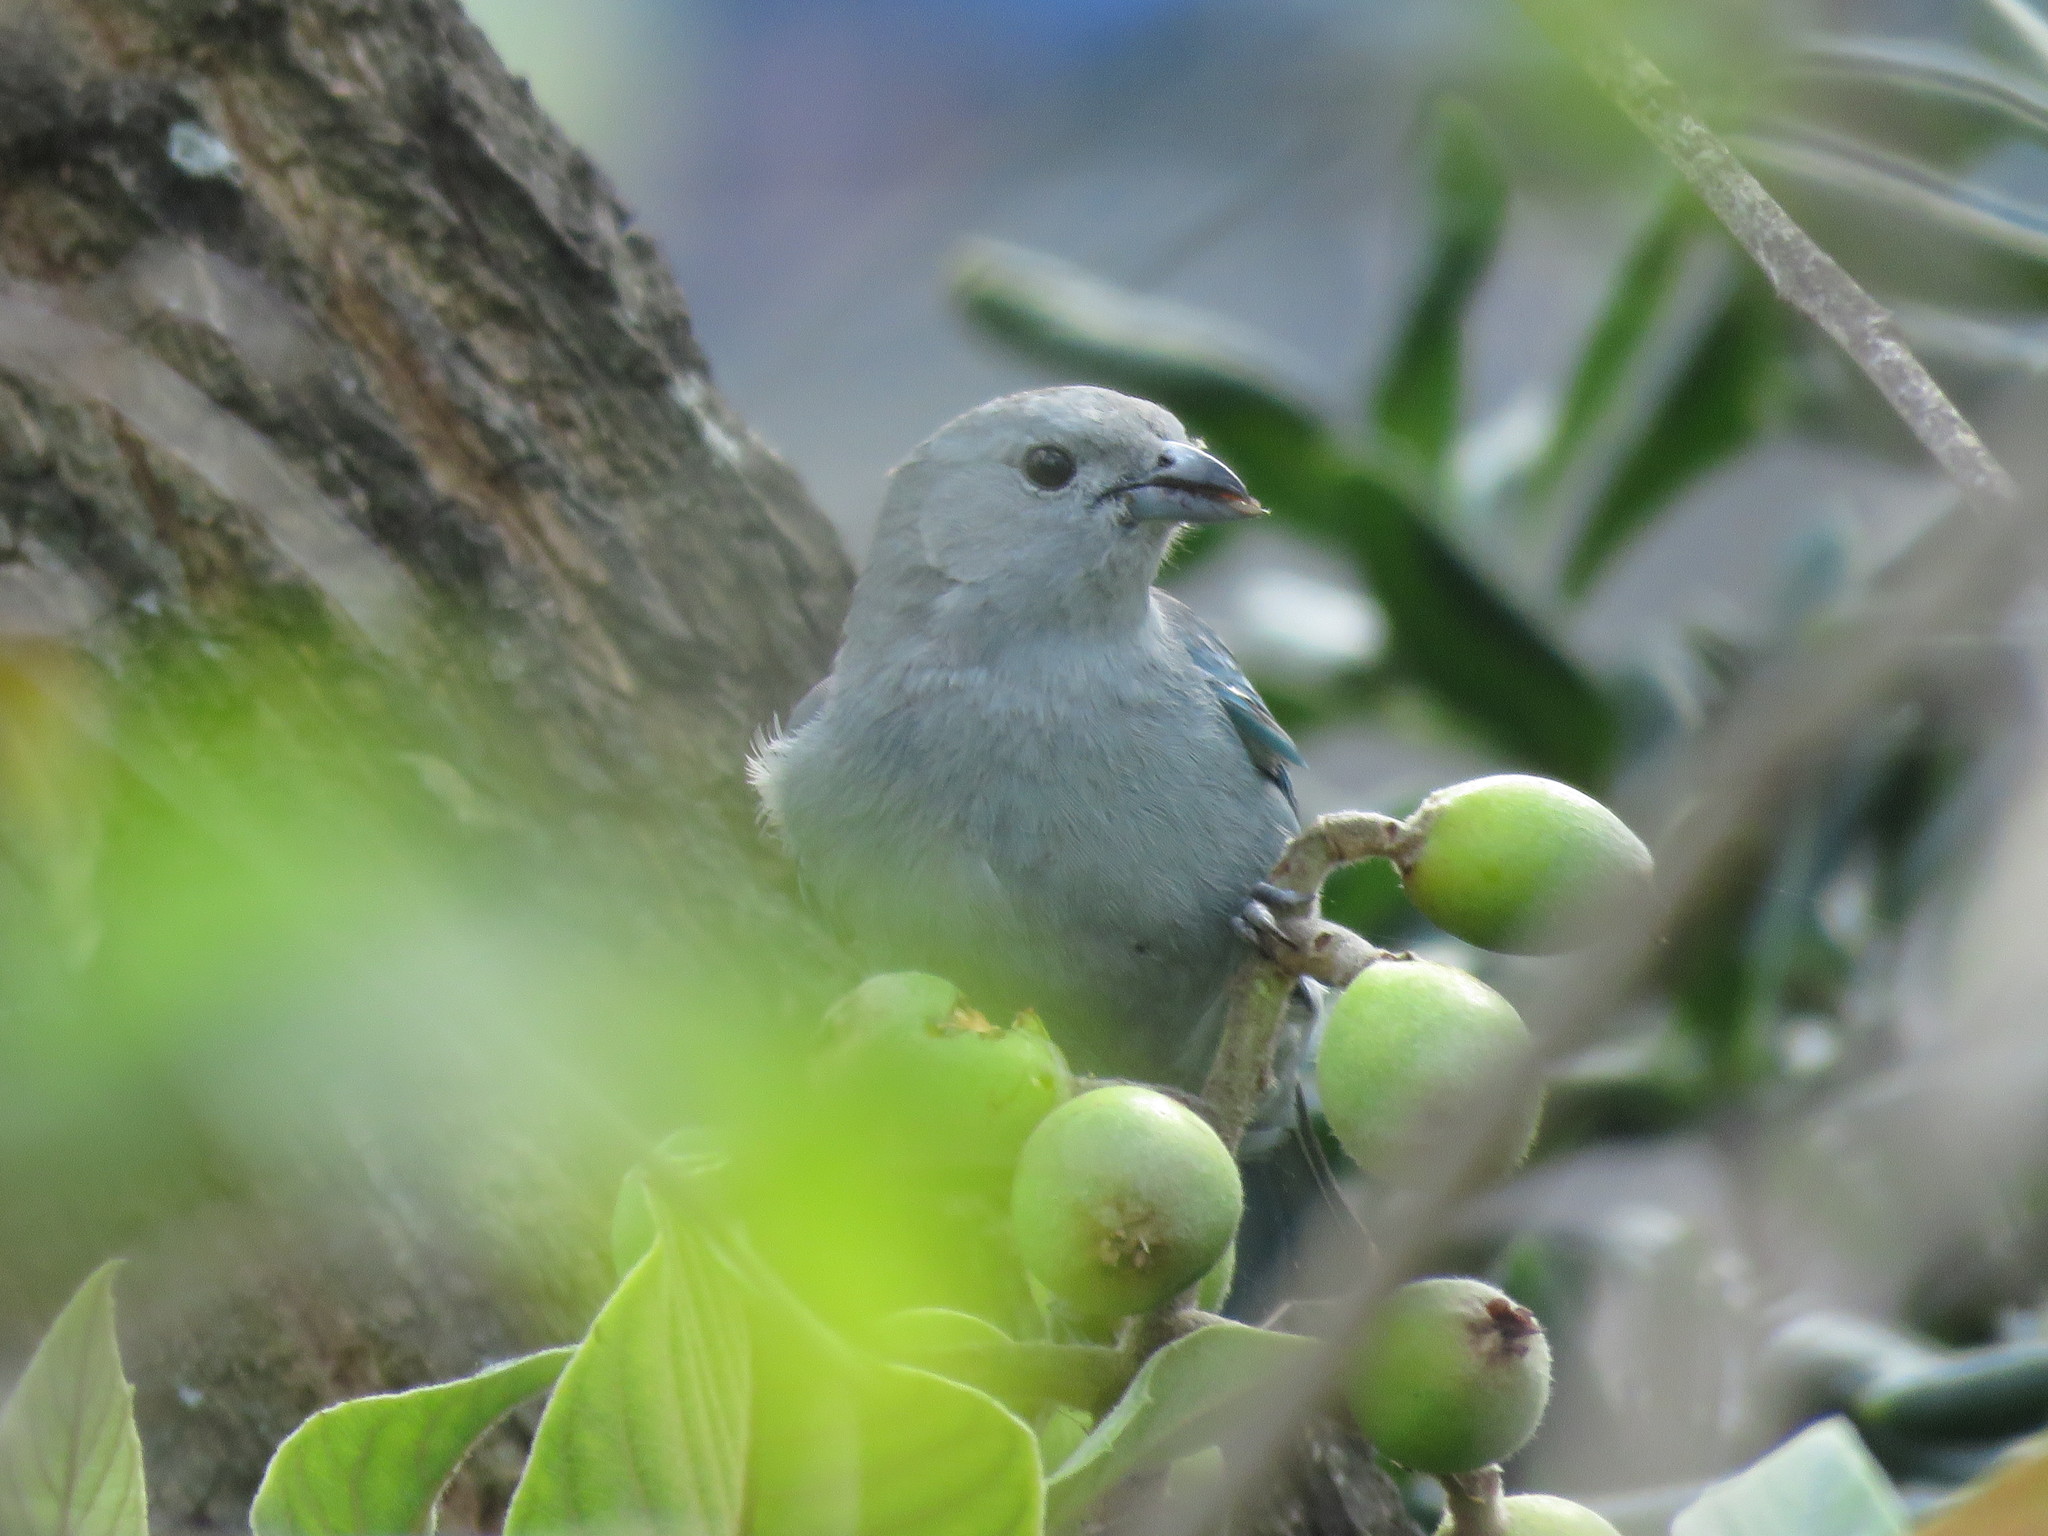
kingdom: Animalia
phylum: Chordata
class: Aves
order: Passeriformes
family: Thraupidae
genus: Thraupis
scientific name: Thraupis sayaca
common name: Sayaca tanager
